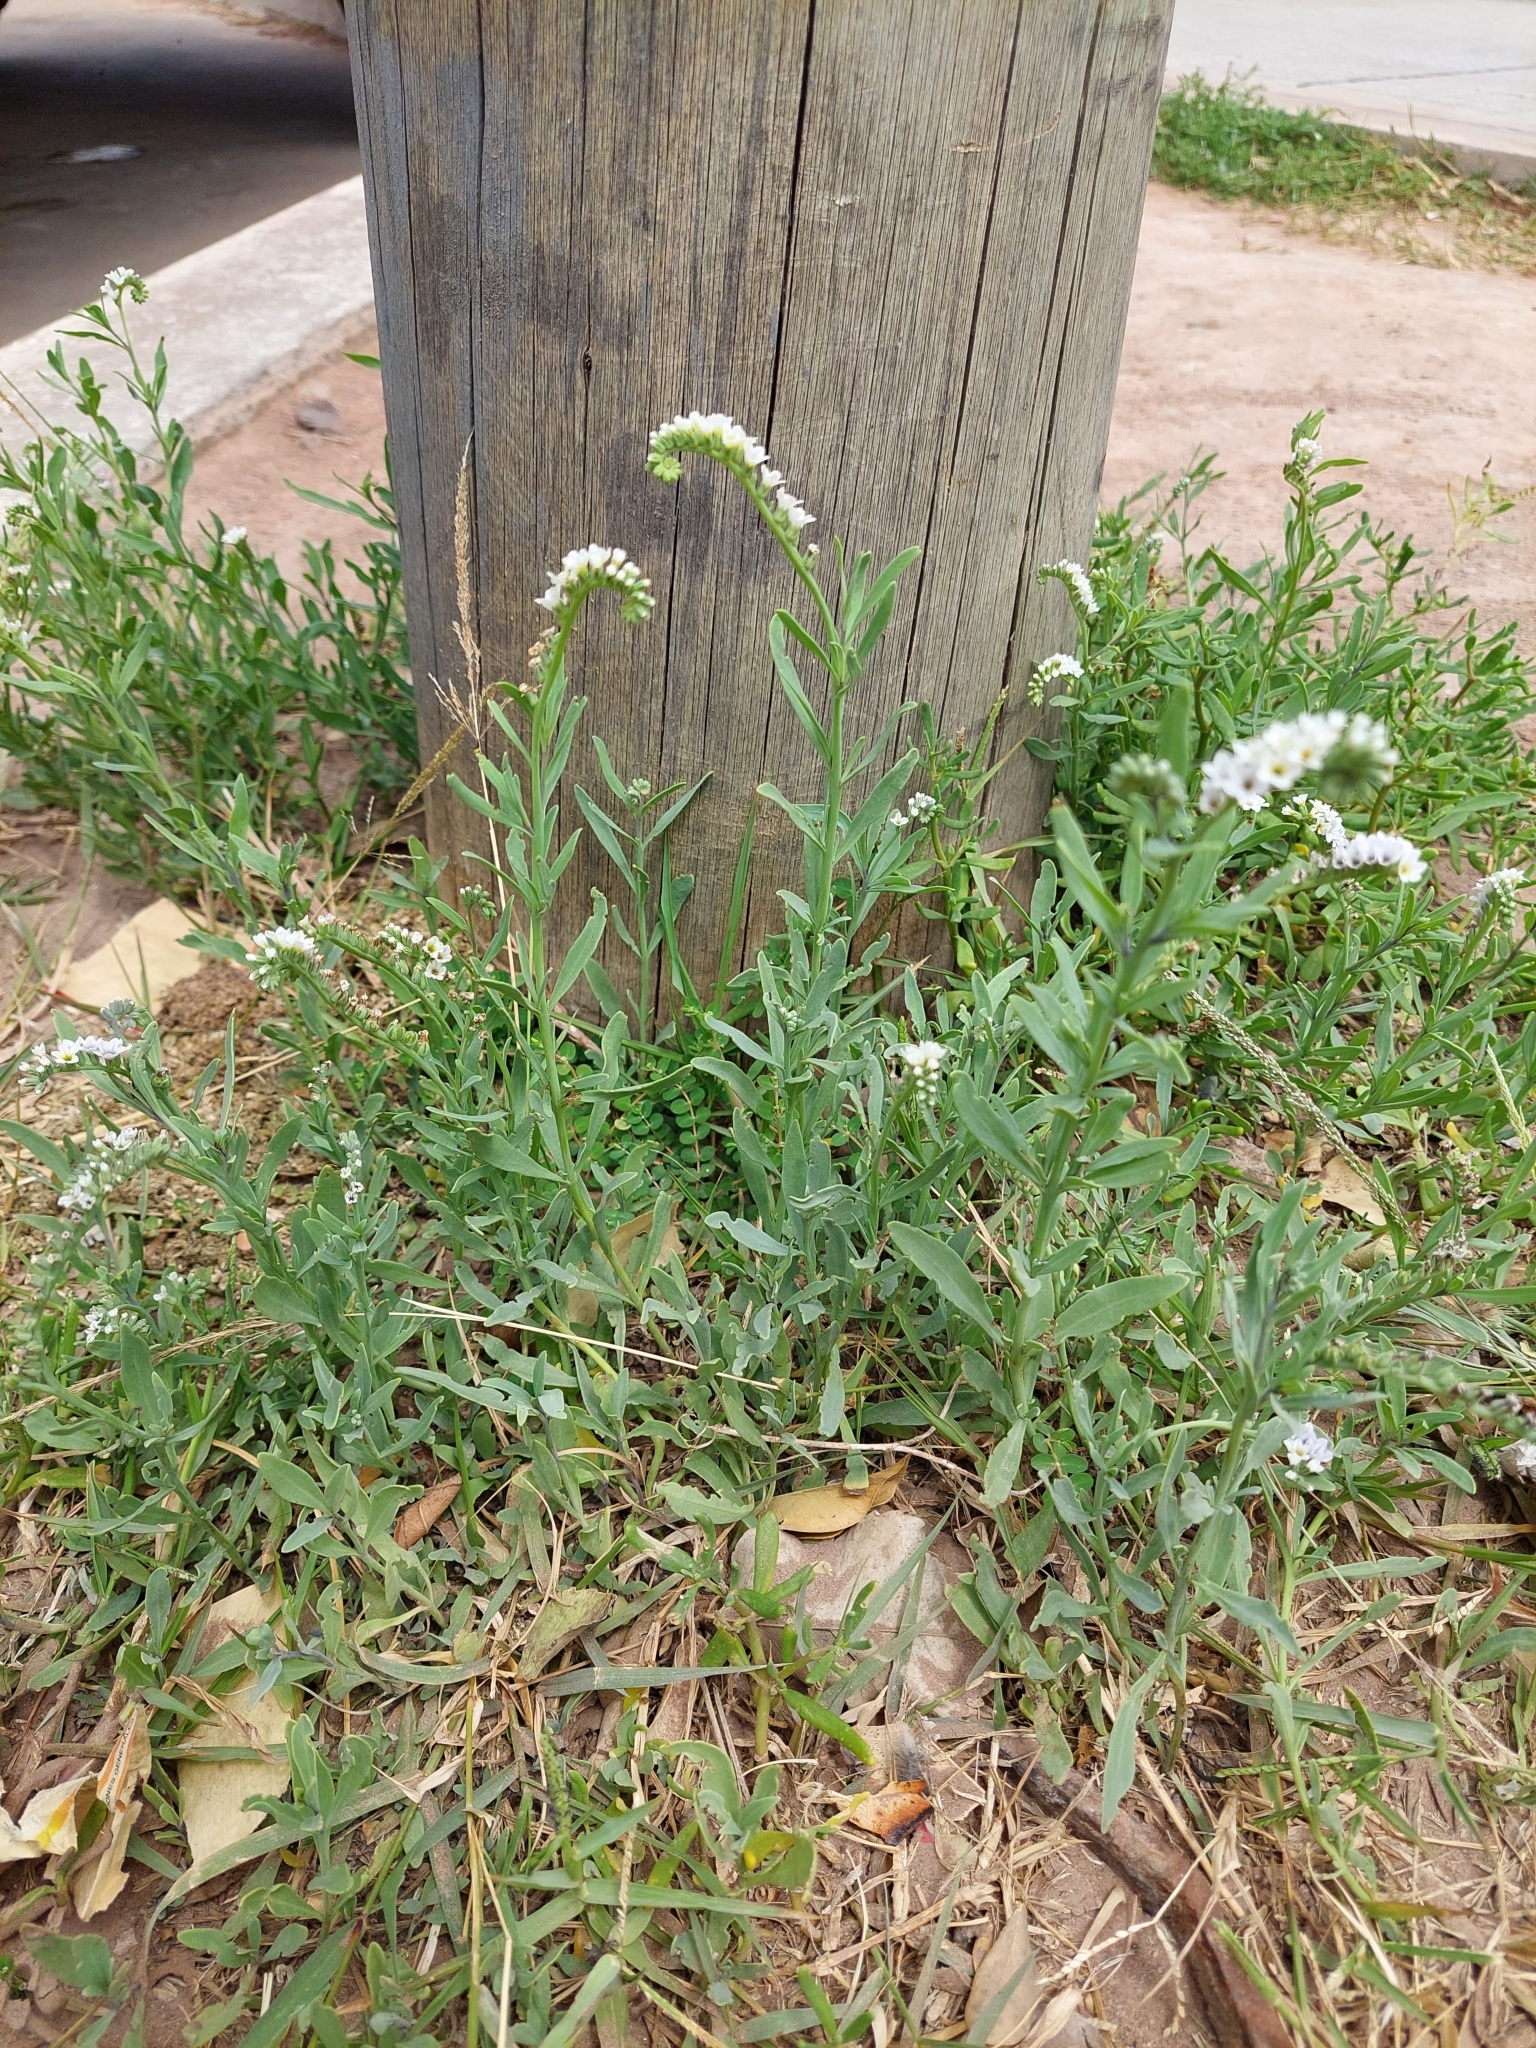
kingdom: Plantae
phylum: Tracheophyta
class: Magnoliopsida
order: Boraginales
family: Heliotropiaceae
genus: Heliotropium
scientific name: Heliotropium curassavicum
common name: Seaside heliotrope
